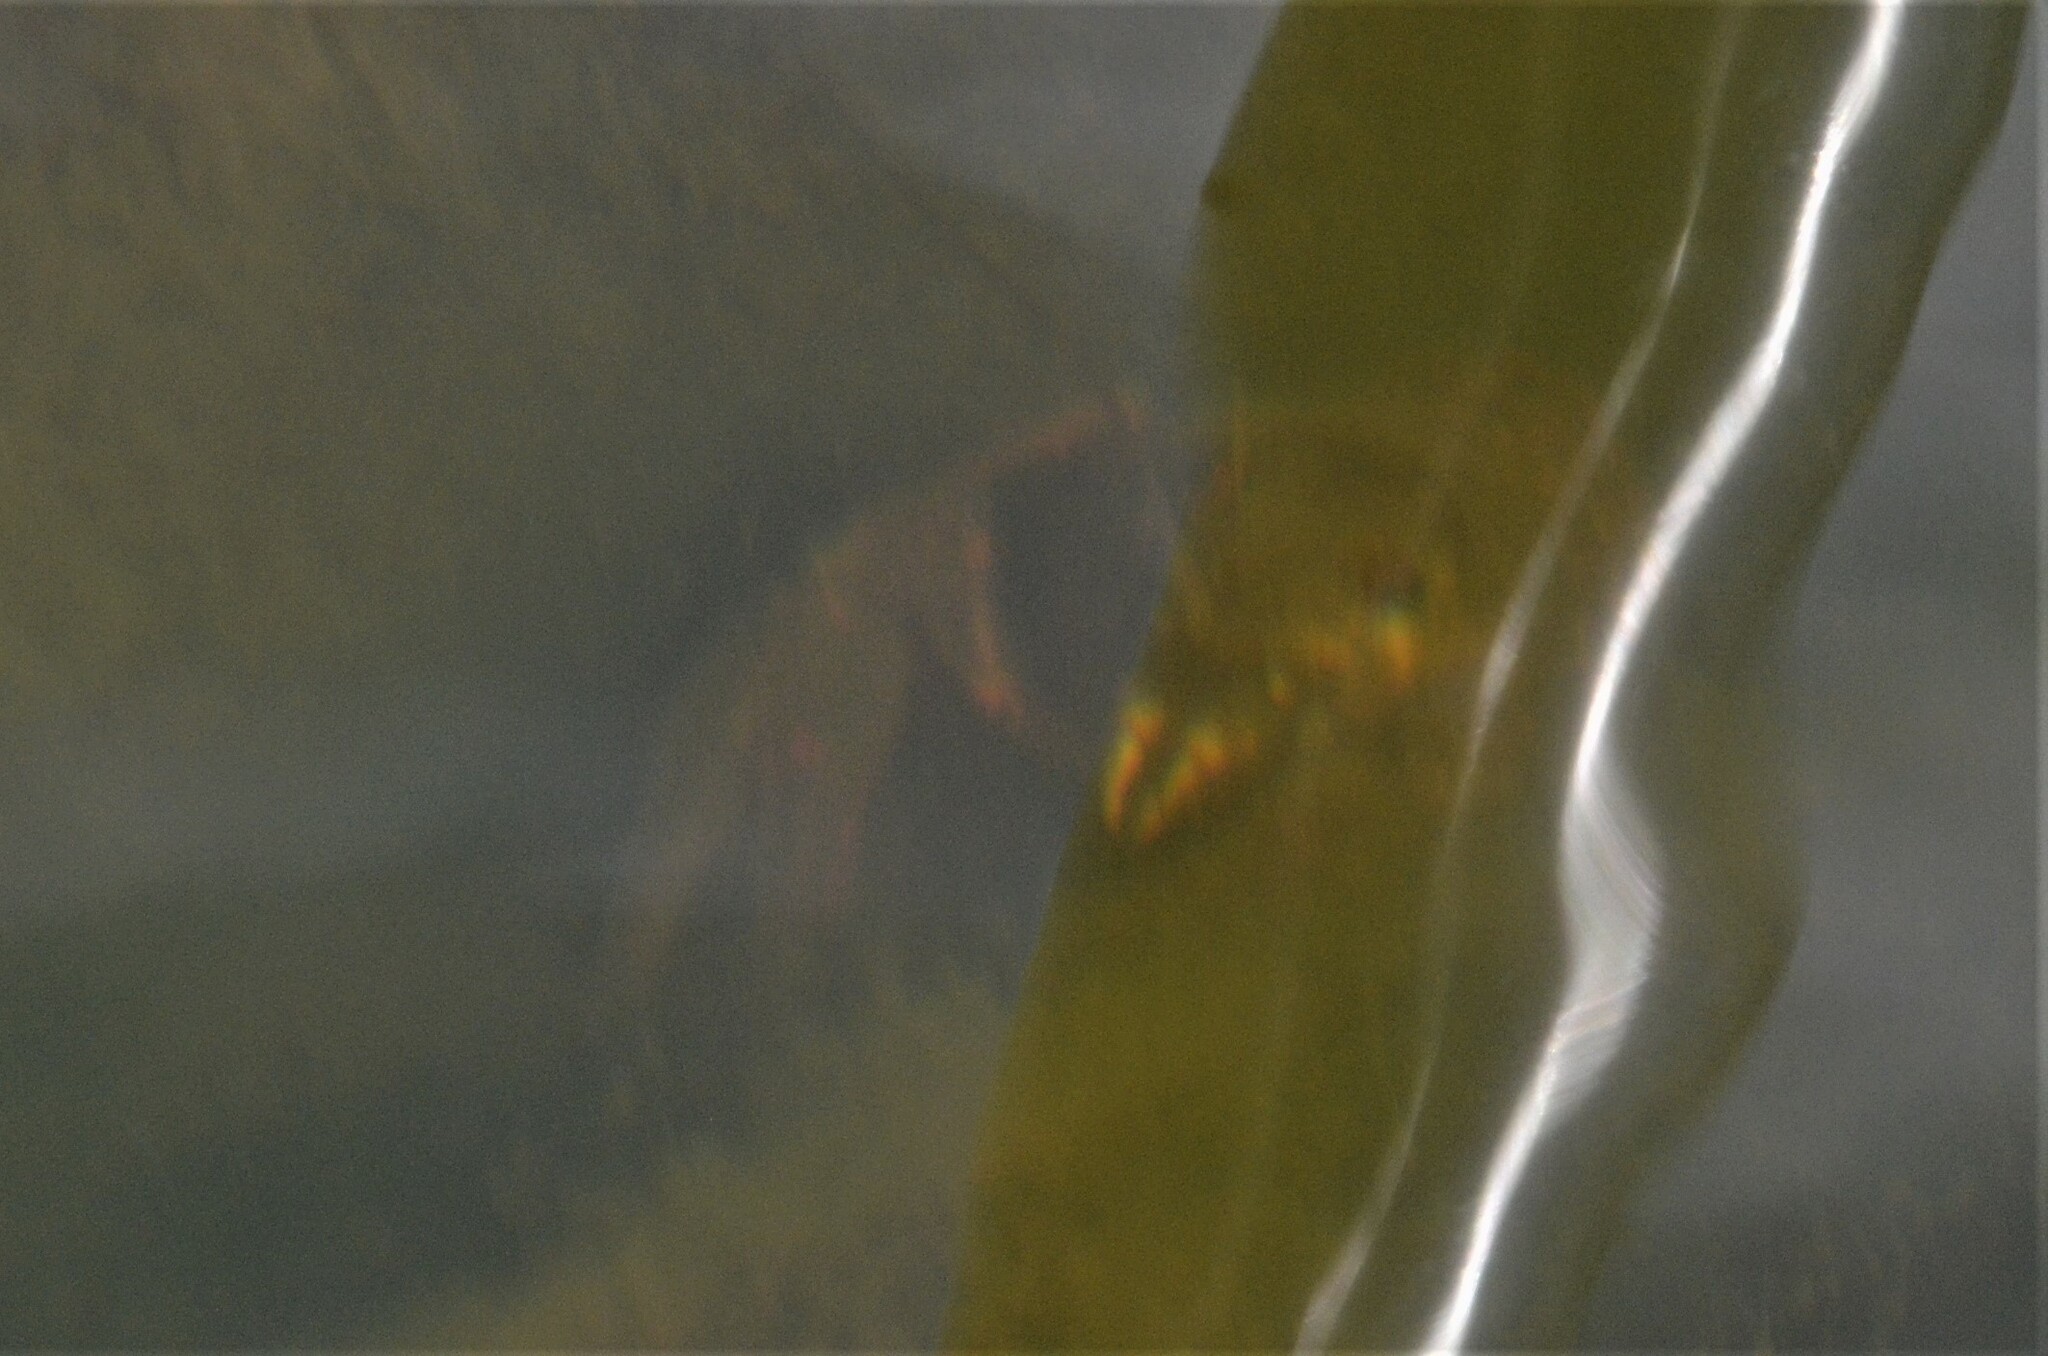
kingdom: Animalia
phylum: Arthropoda
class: Malacostraca
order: Decapoda
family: Astacidae
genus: Astacus
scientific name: Astacus astacus
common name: Noble crayfish
